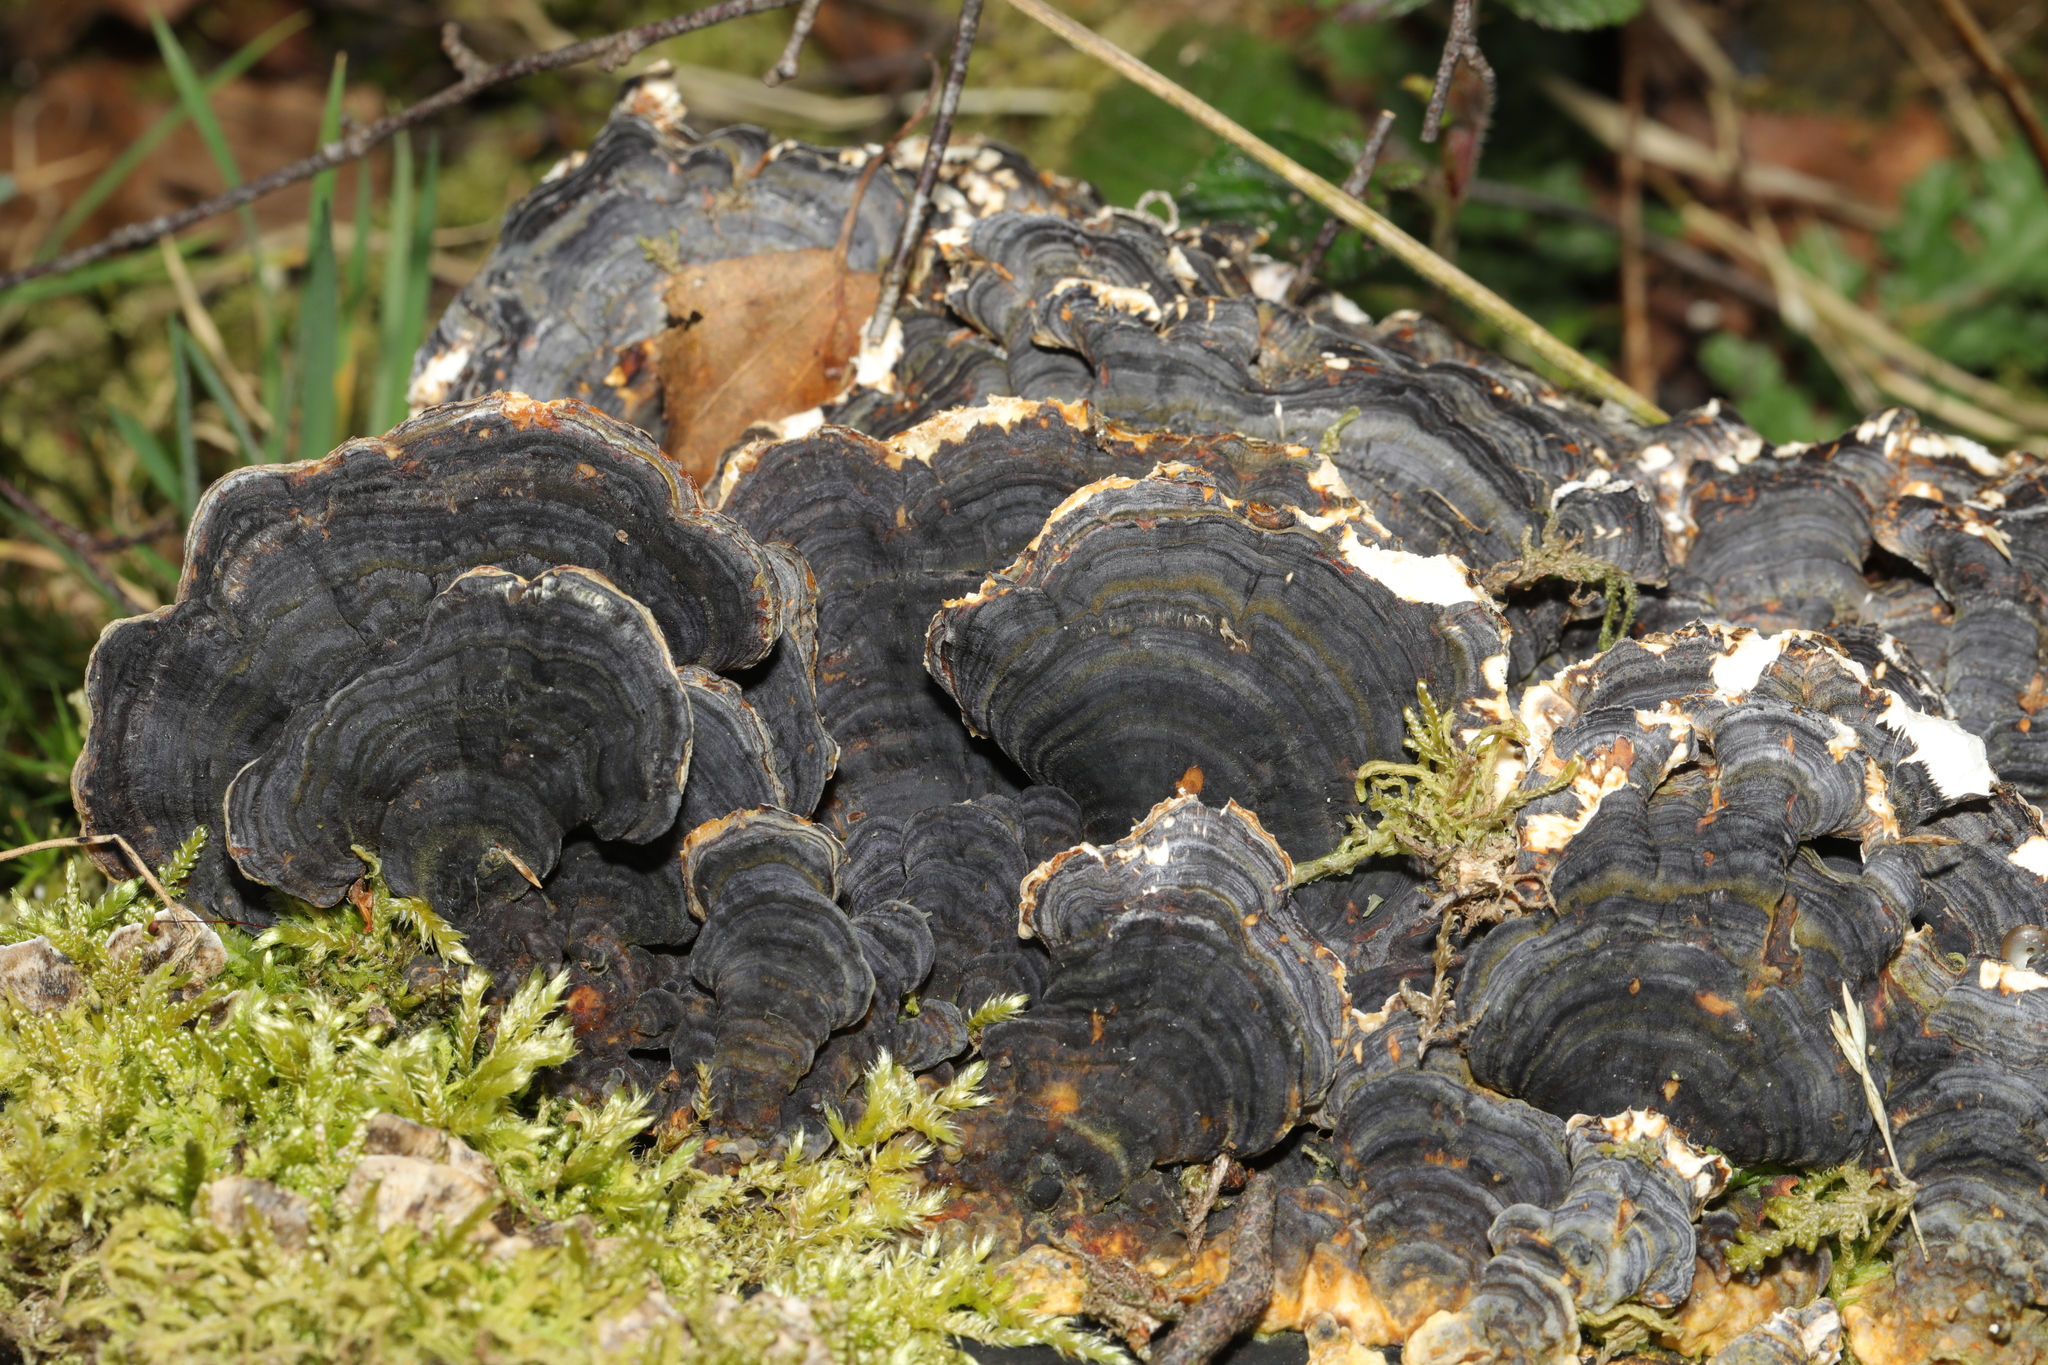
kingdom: Fungi
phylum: Basidiomycota
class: Agaricomycetes
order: Polyporales
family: Polyporaceae
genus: Trametes
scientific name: Trametes versicolor
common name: Turkeytail
